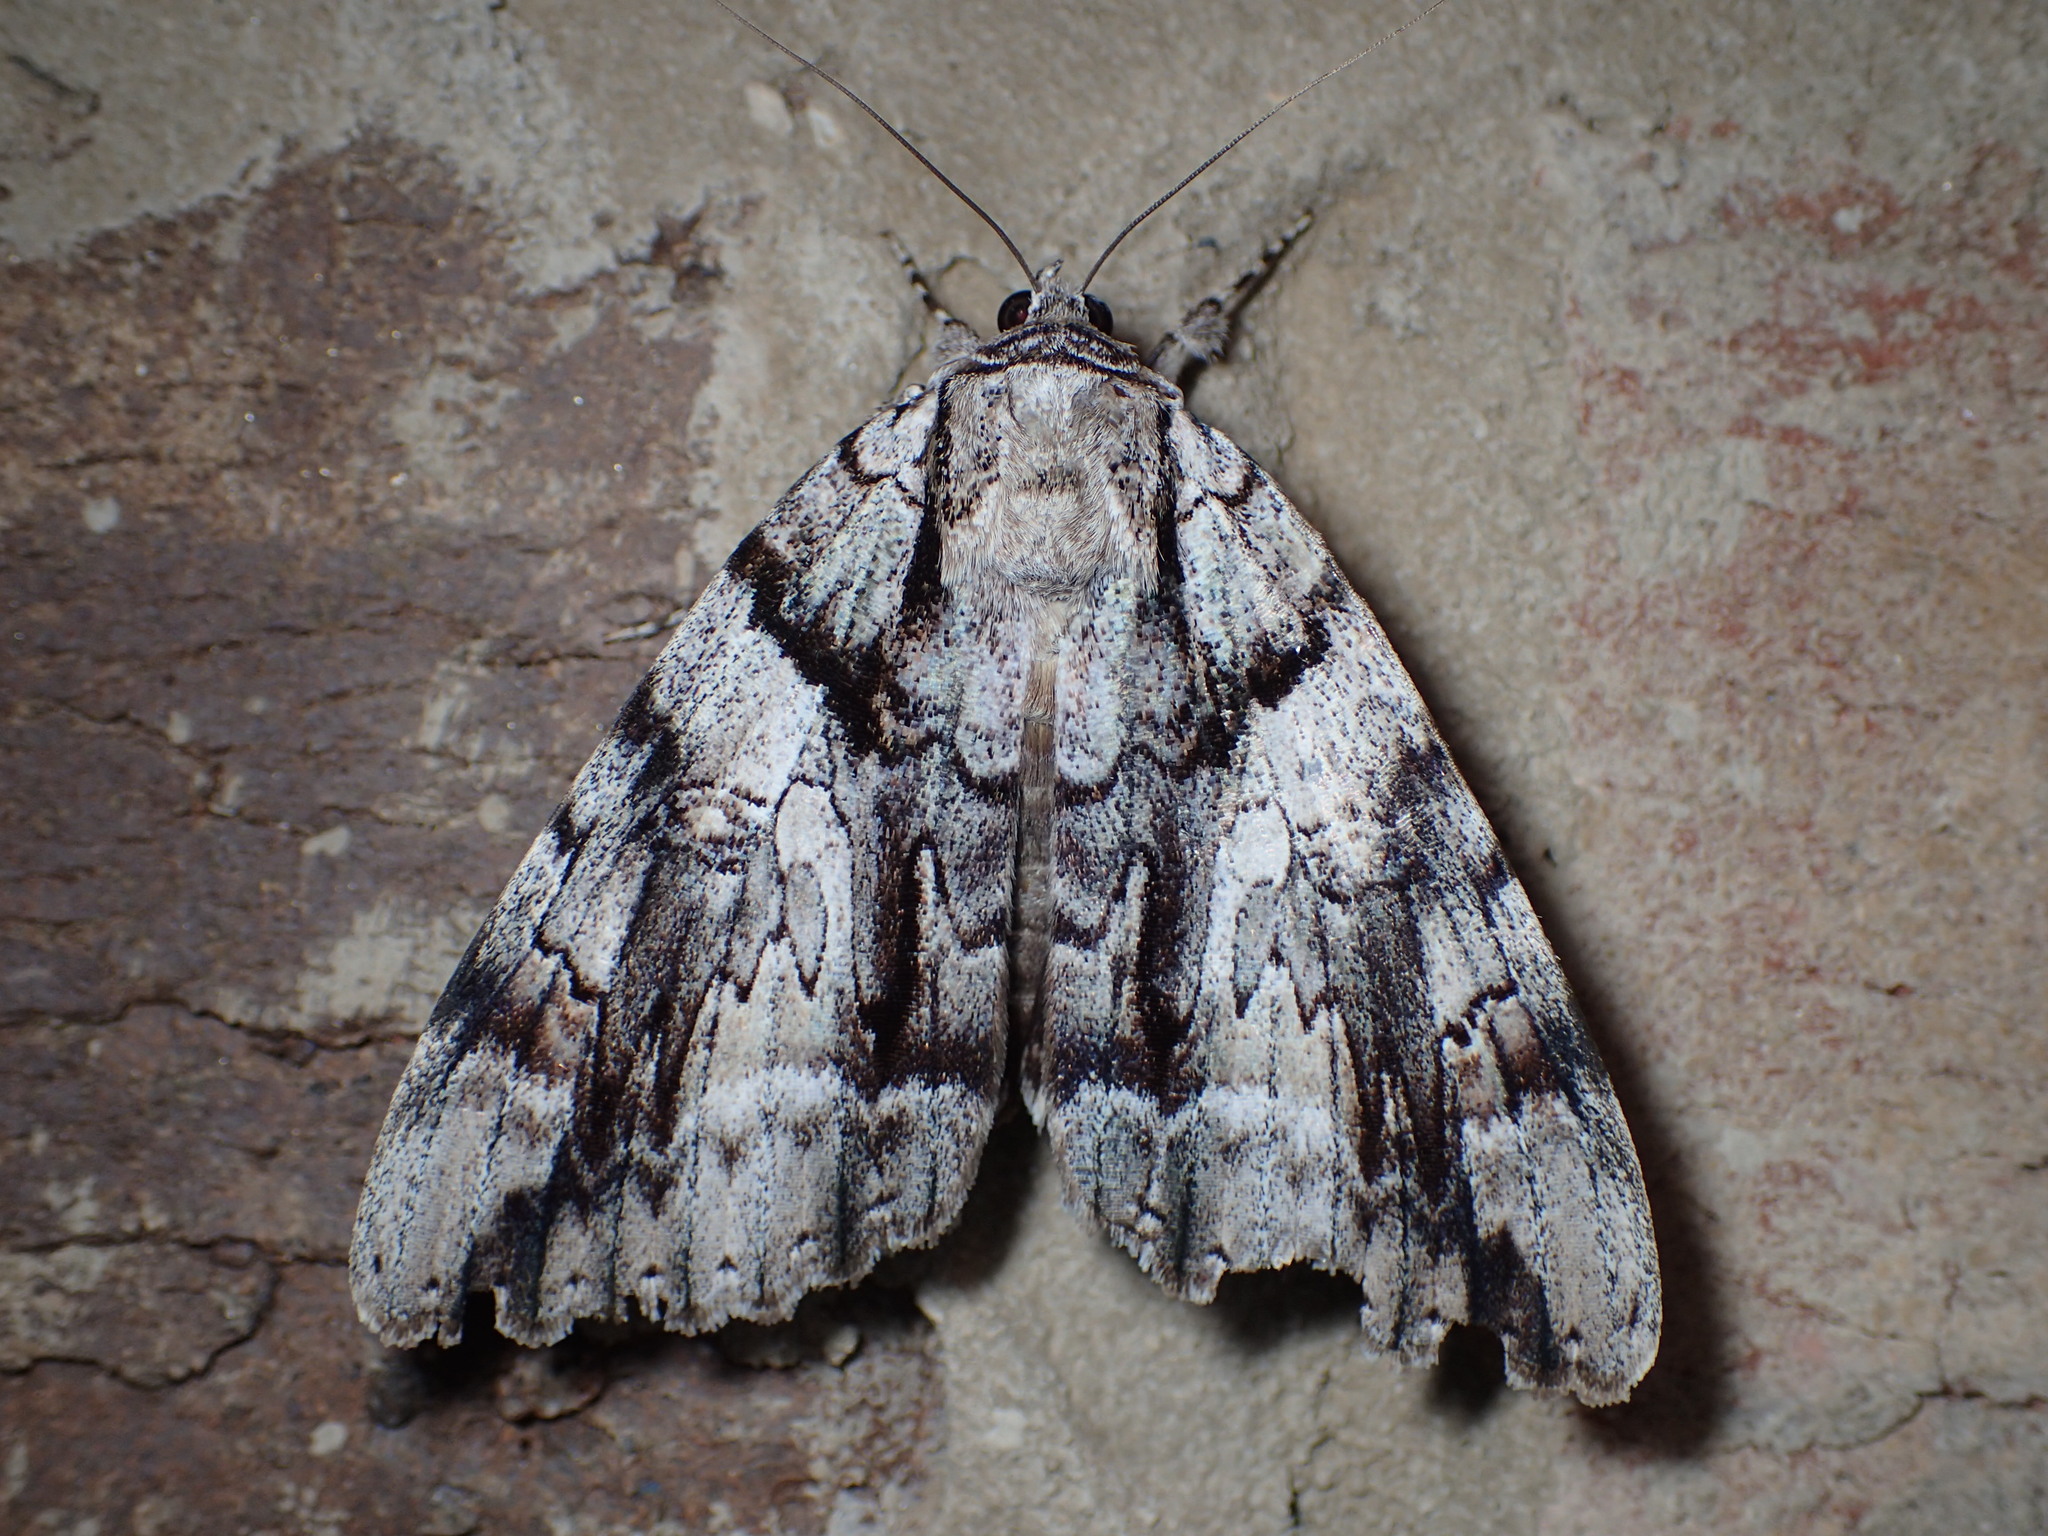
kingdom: Animalia
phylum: Arthropoda
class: Insecta
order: Lepidoptera
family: Erebidae
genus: Catocala
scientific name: Catocala vidua
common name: The widow
